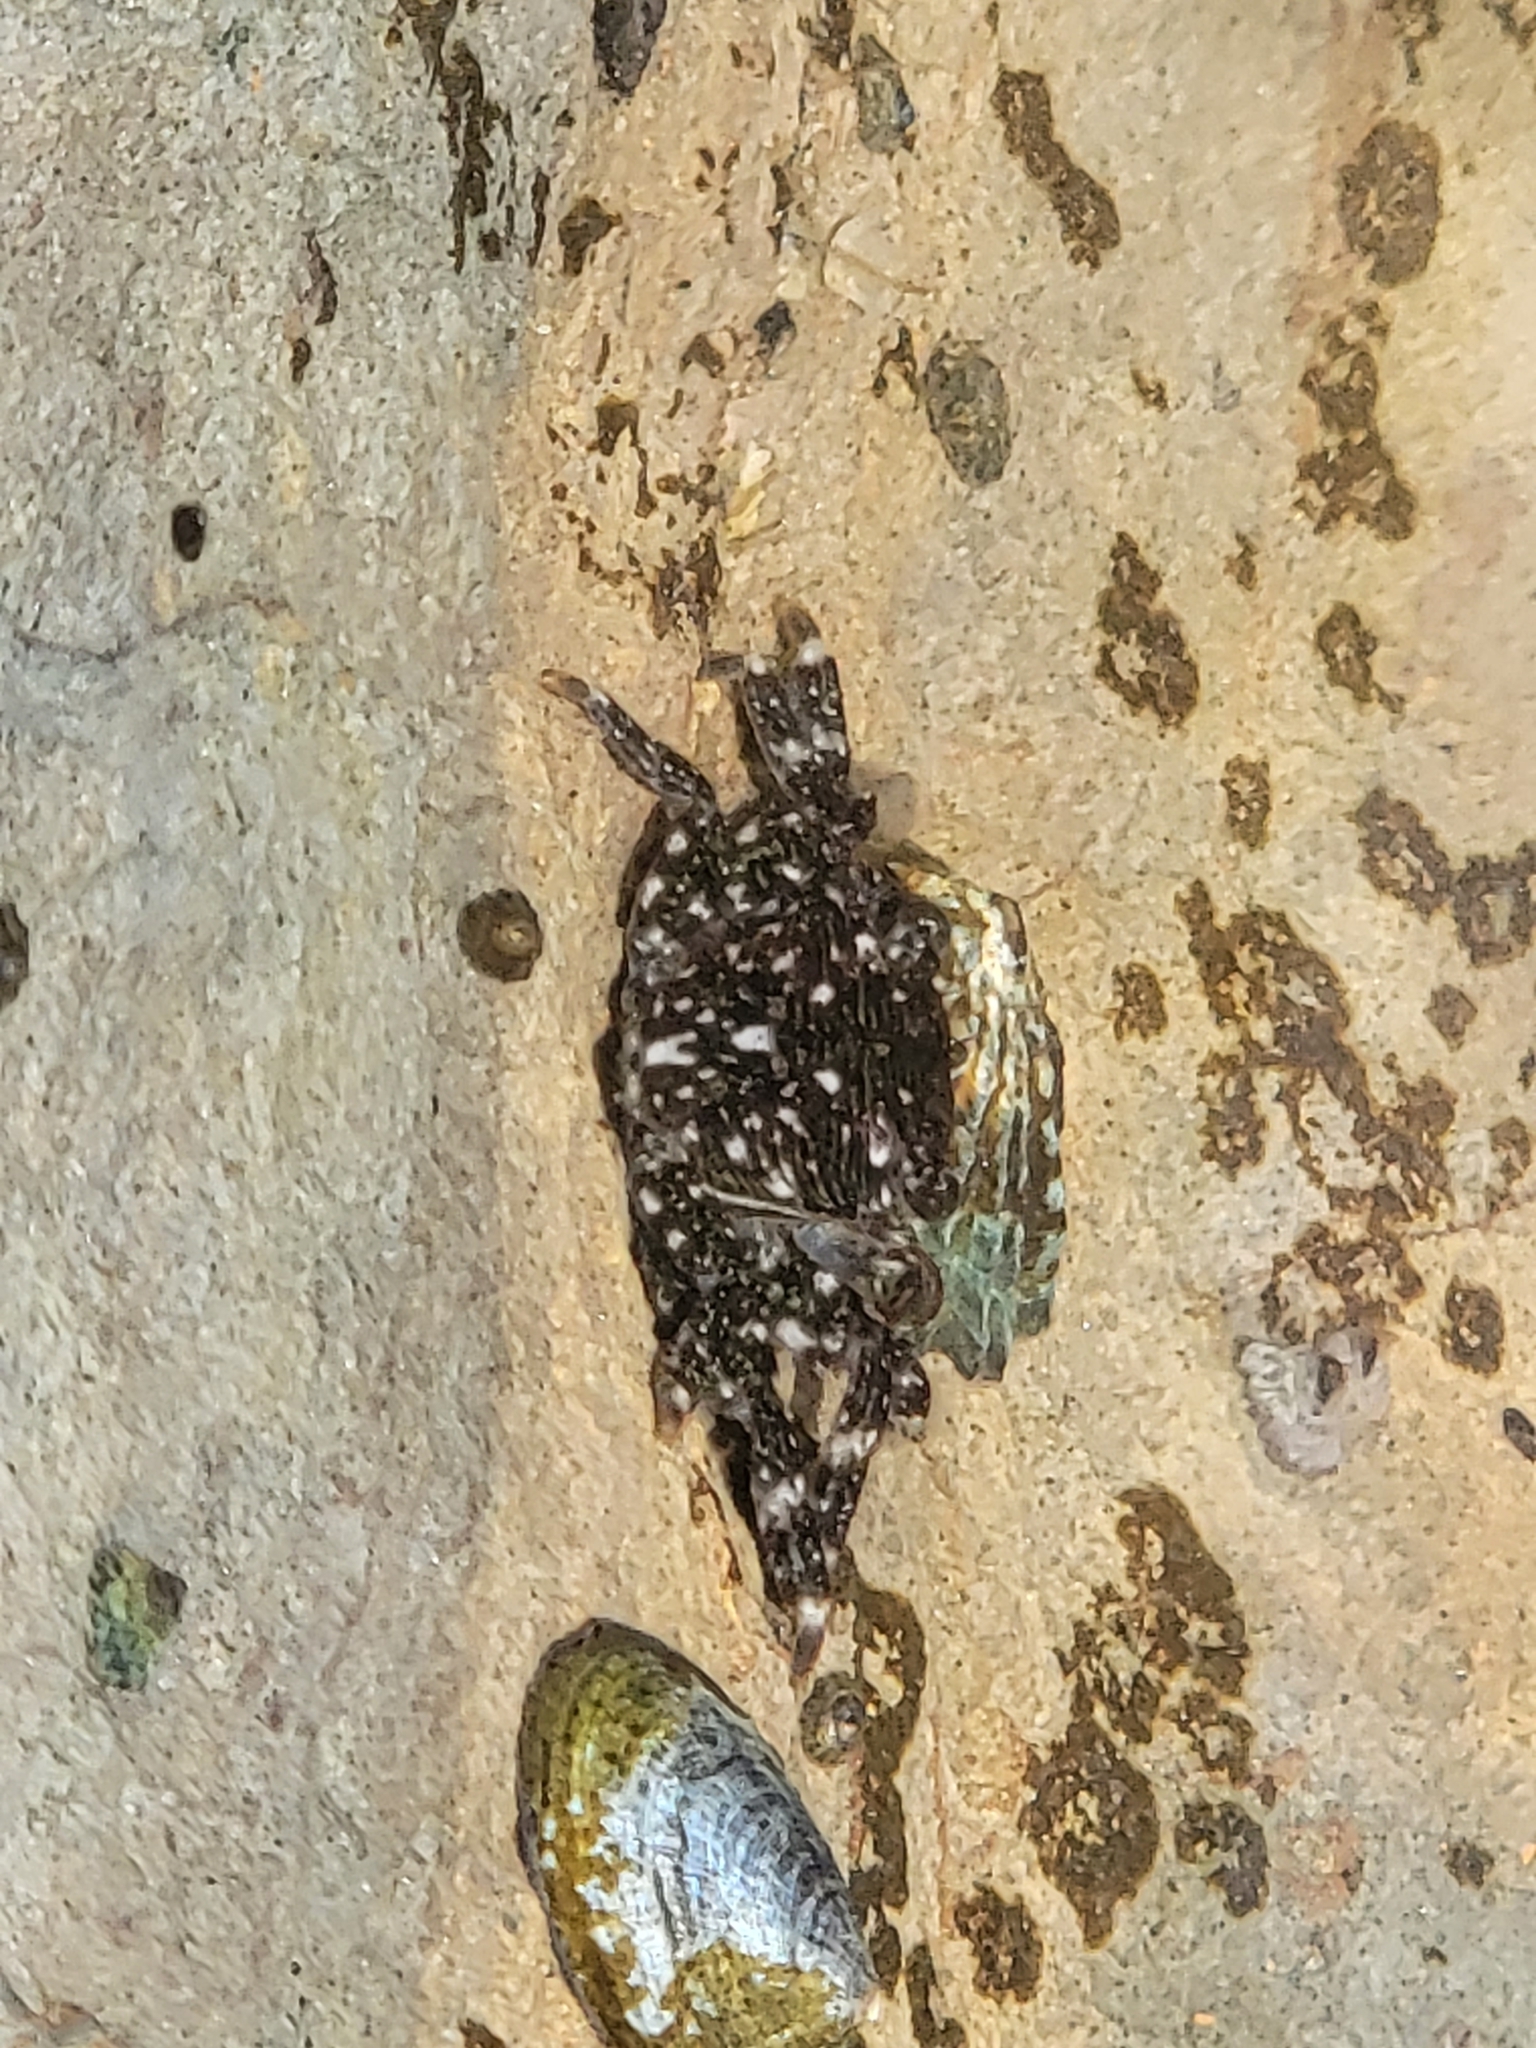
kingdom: Animalia
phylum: Arthropoda
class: Malacostraca
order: Decapoda
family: Grapsidae
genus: Pachygrapsus
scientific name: Pachygrapsus crassipes
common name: Striped shore crab
